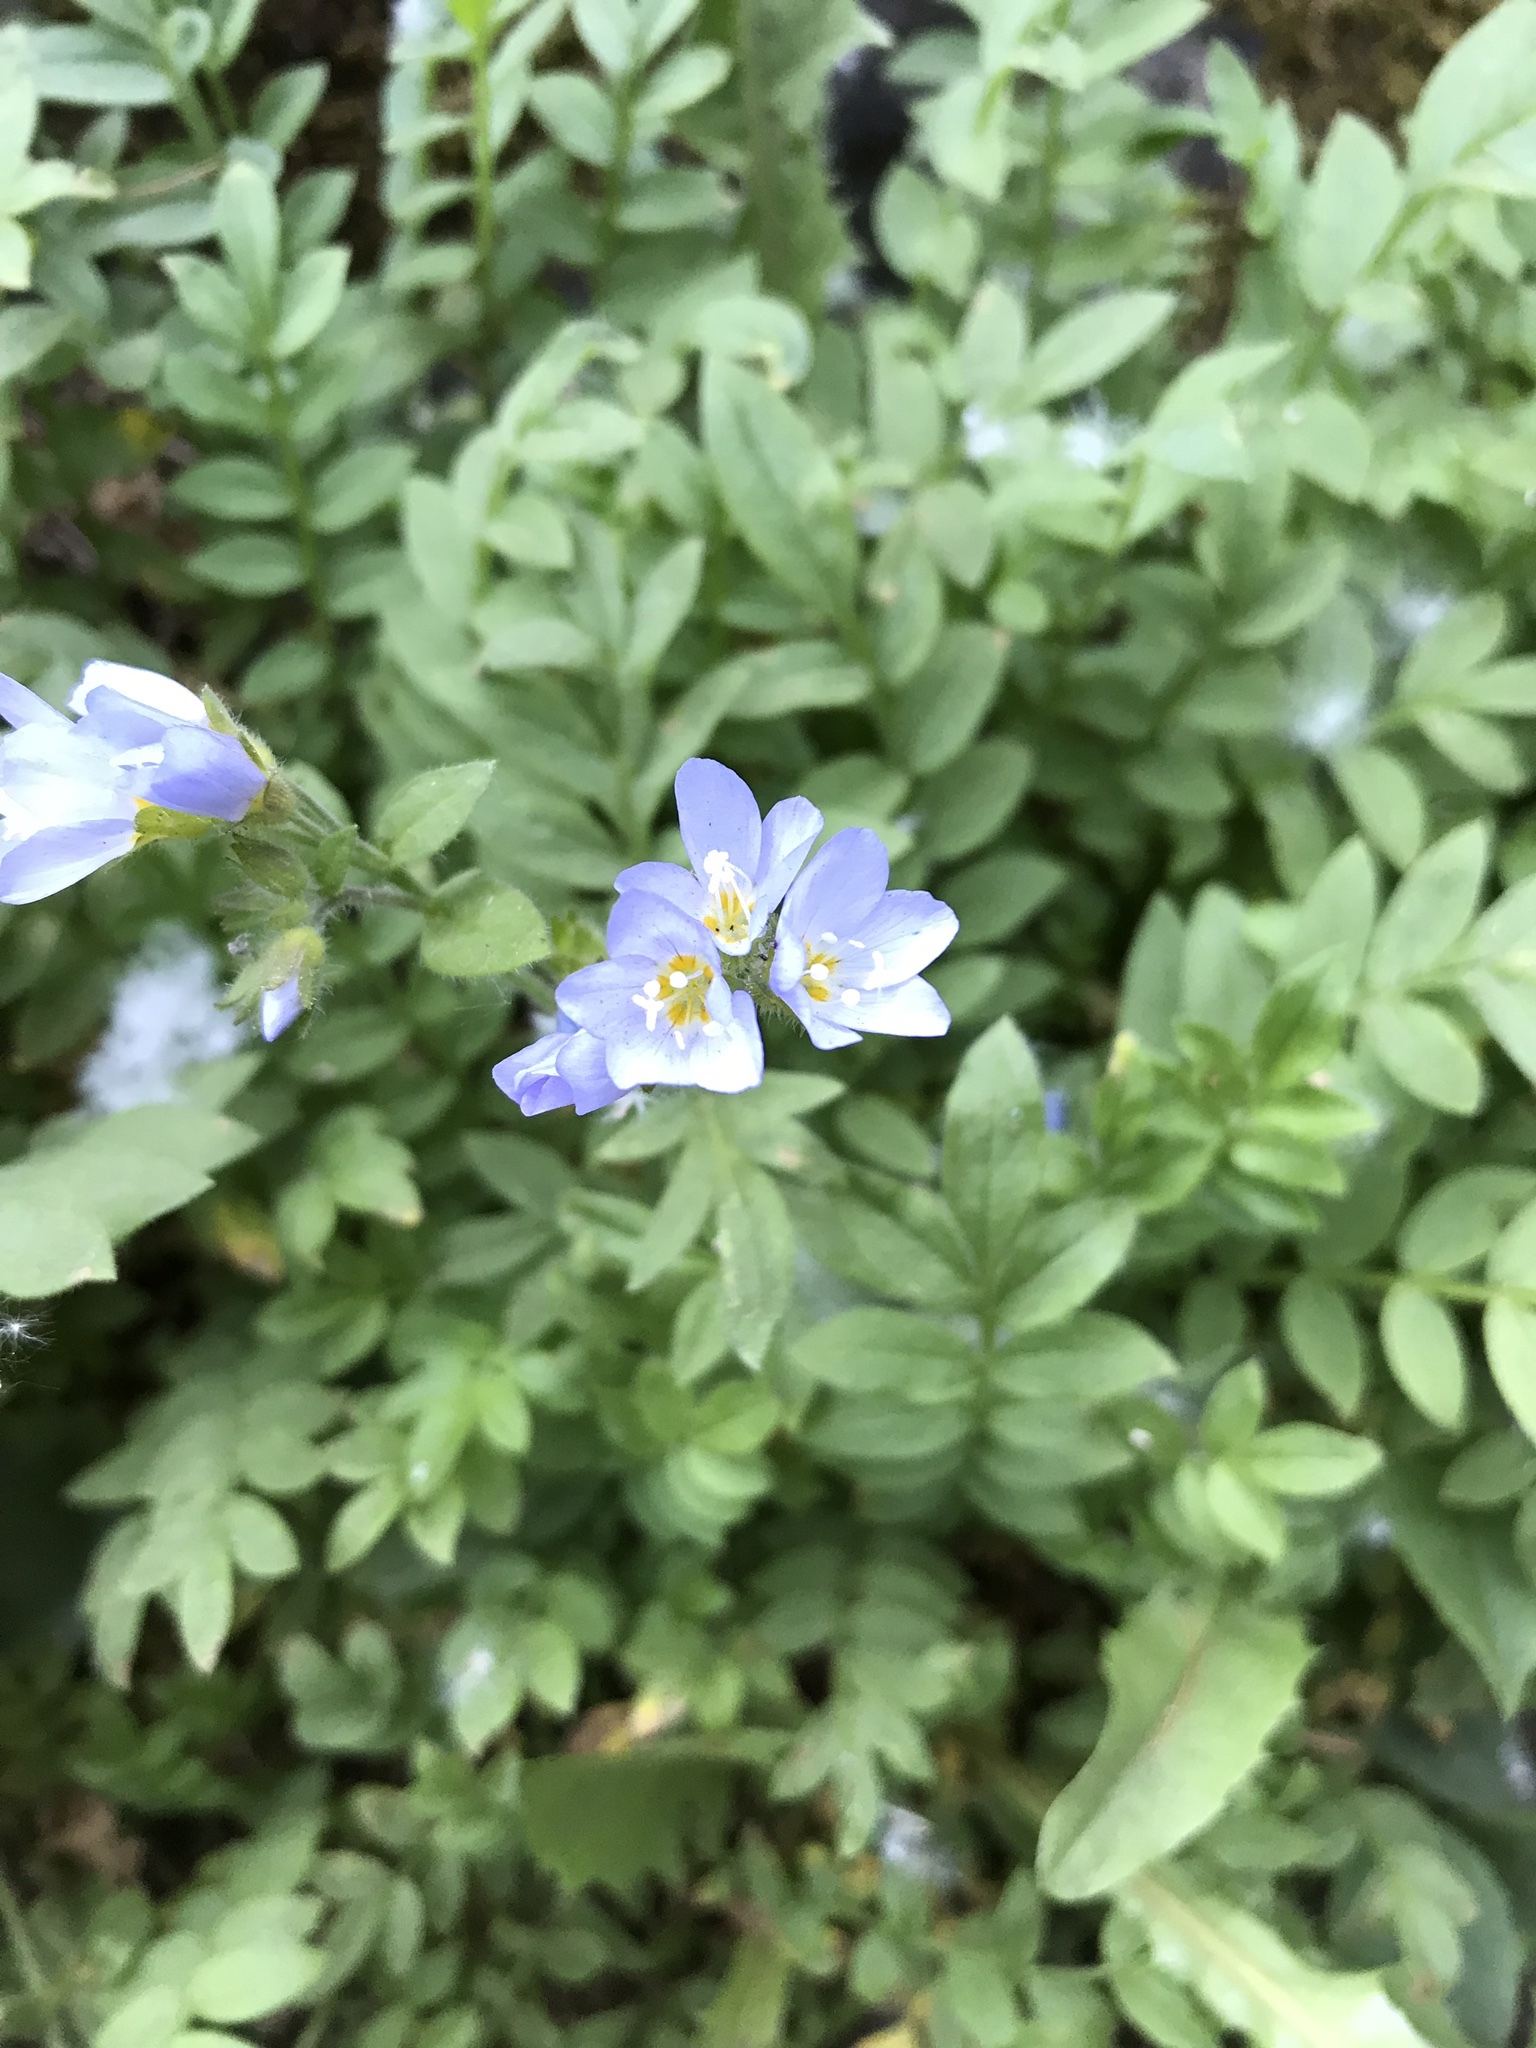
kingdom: Plantae
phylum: Tracheophyta
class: Magnoliopsida
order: Ericales
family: Polemoniaceae
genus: Polemonium
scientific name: Polemonium californicum
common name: California jacob's ladder
